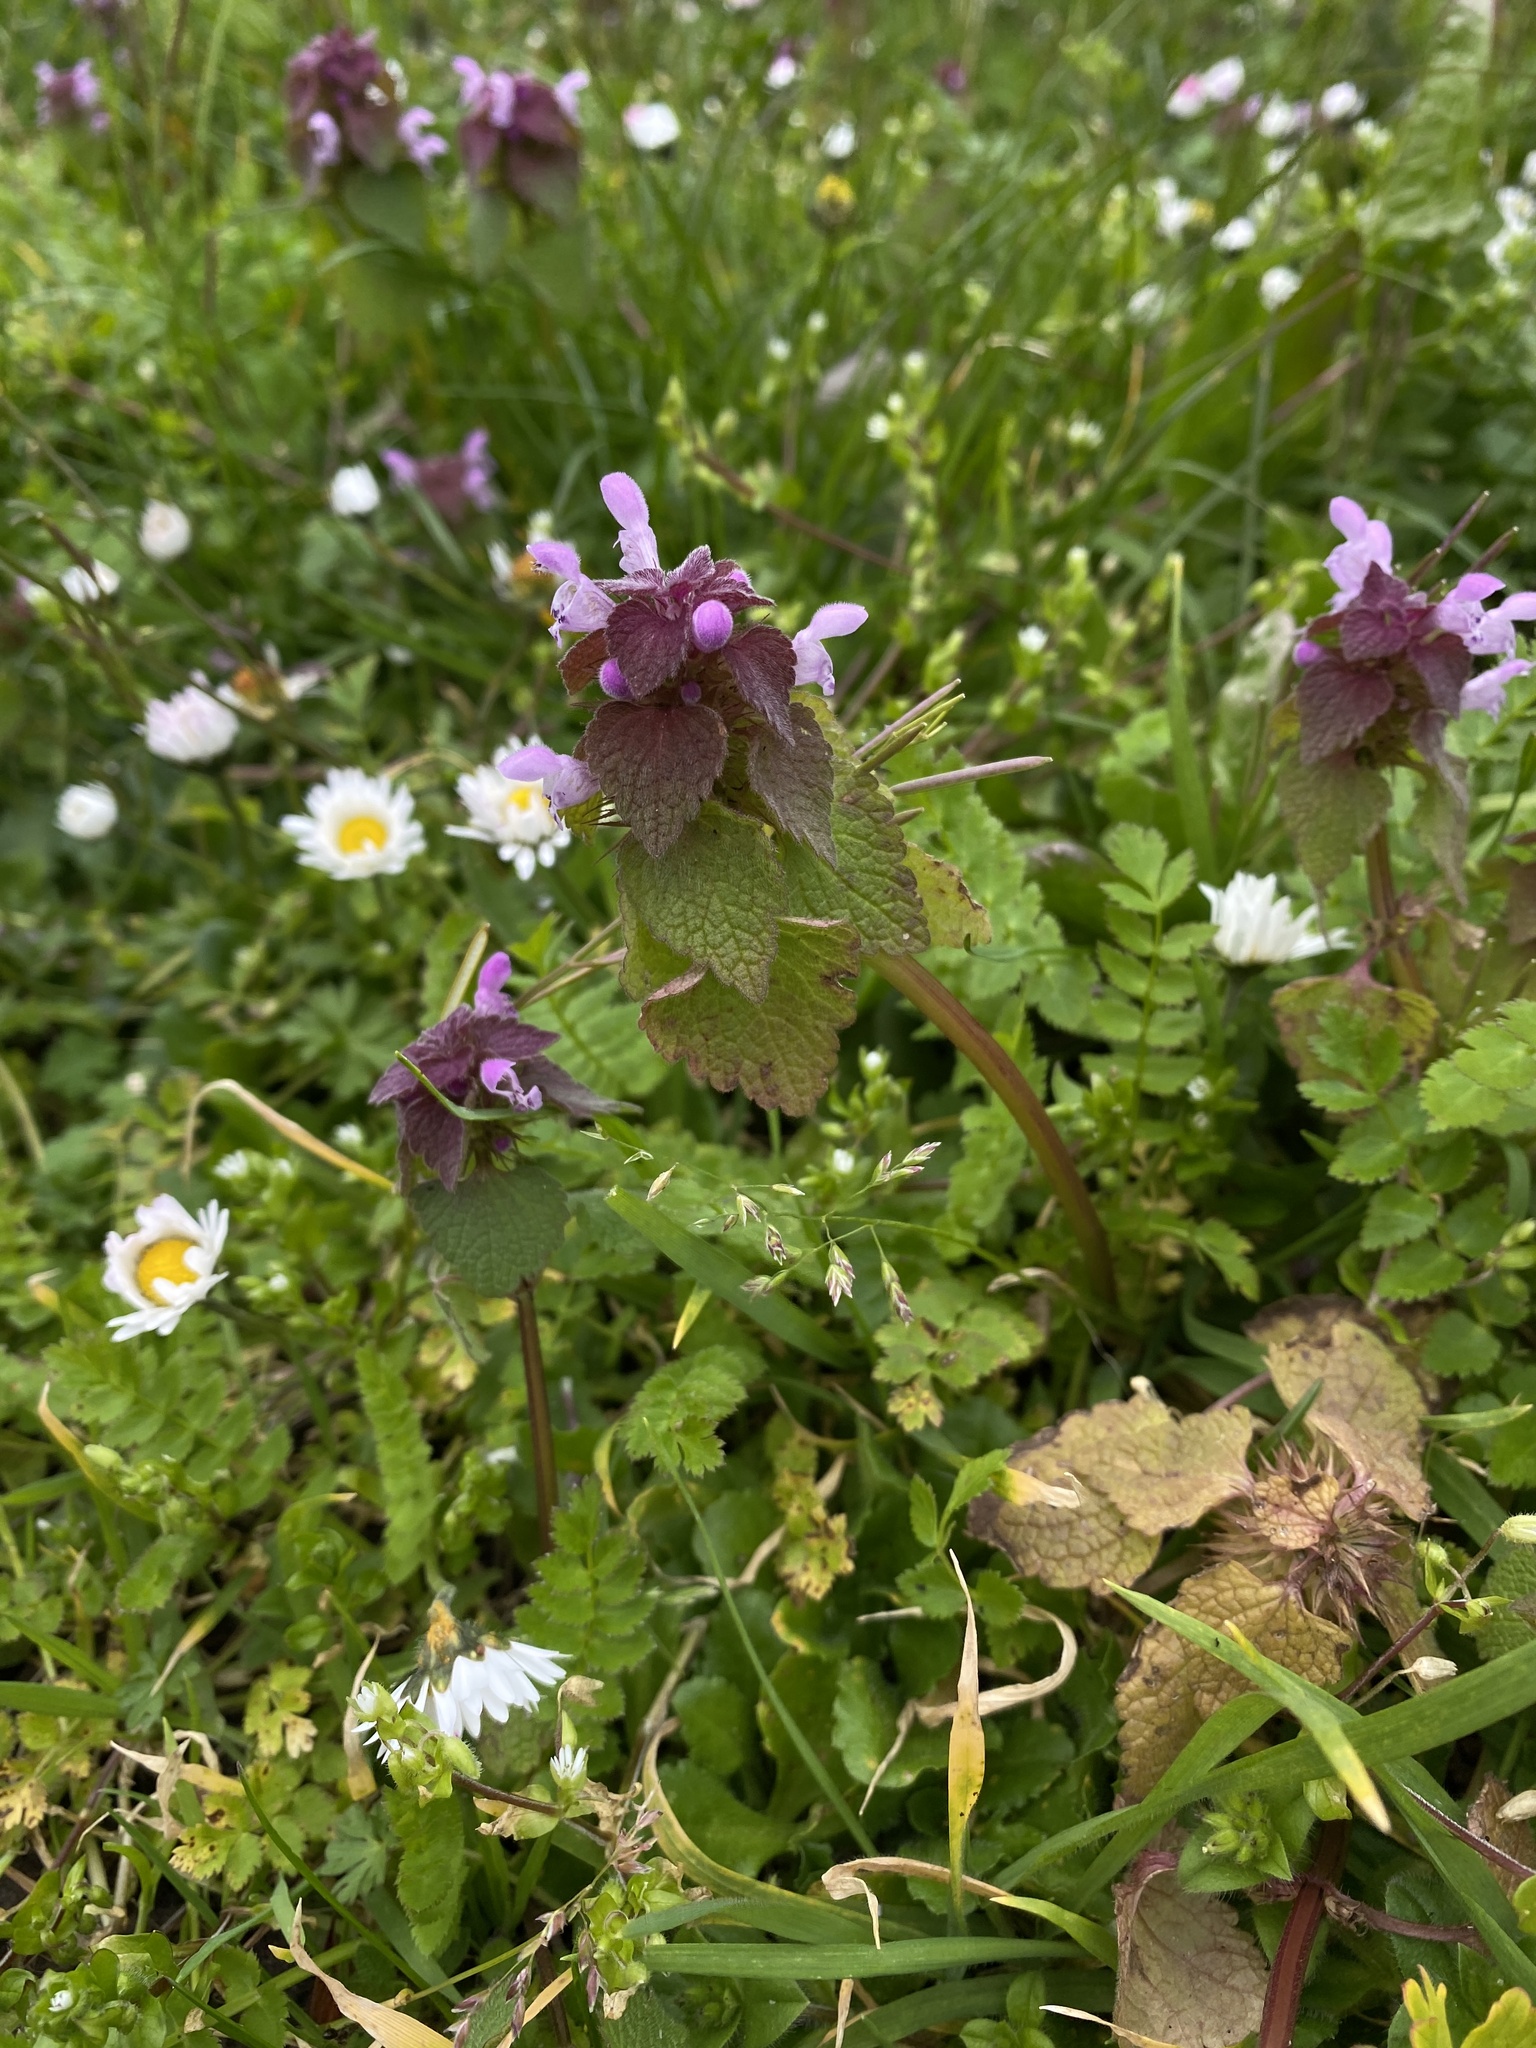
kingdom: Plantae
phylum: Tracheophyta
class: Magnoliopsida
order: Lamiales
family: Lamiaceae
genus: Lamium
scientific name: Lamium purpureum
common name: Red dead-nettle
